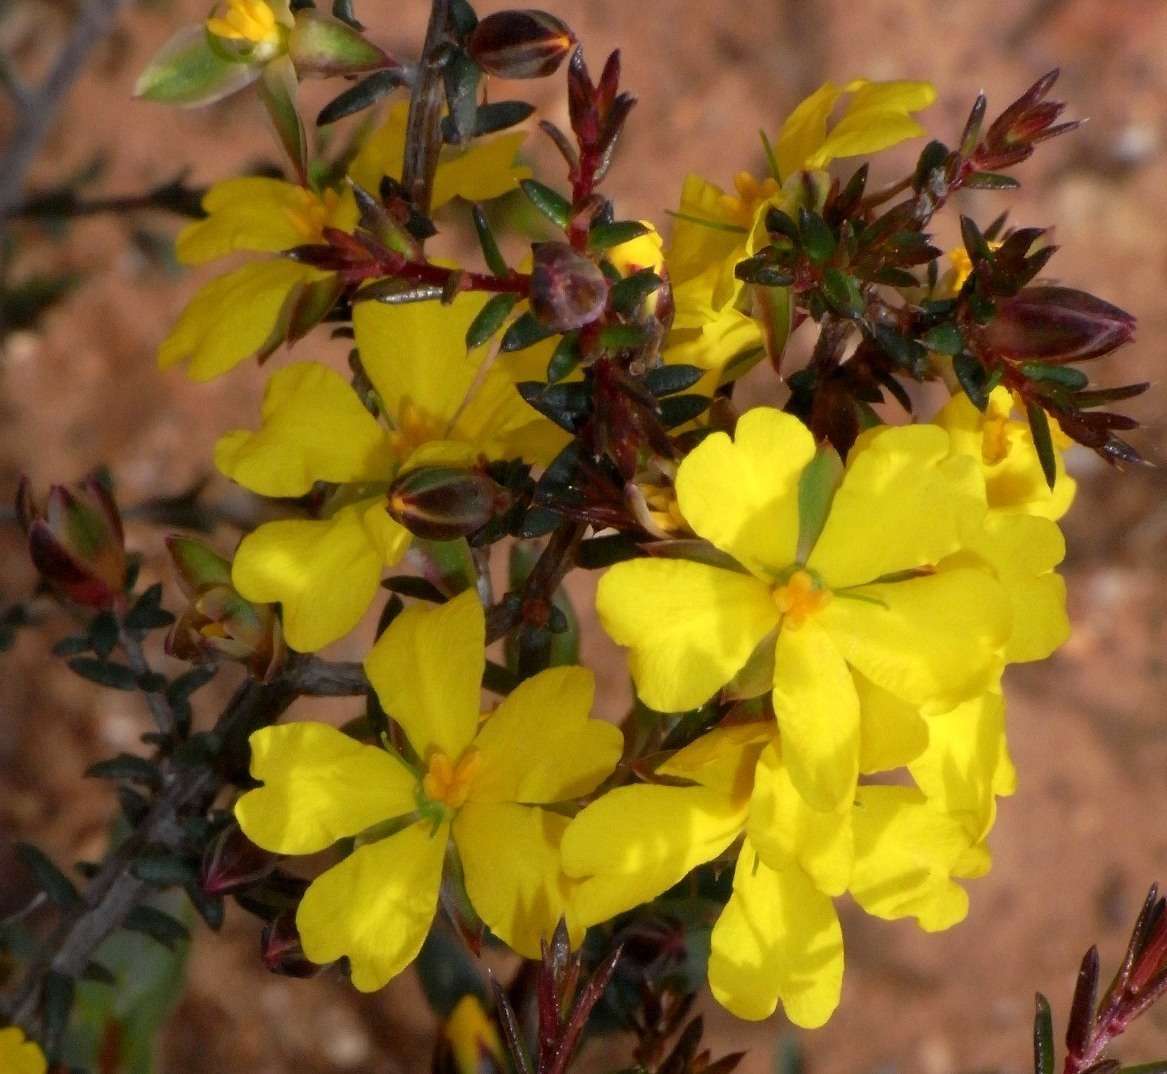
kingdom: Plantae
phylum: Tracheophyta
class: Magnoliopsida
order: Dilleniales
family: Dilleniaceae
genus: Hibbertia
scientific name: Hibbertia exutiacies
